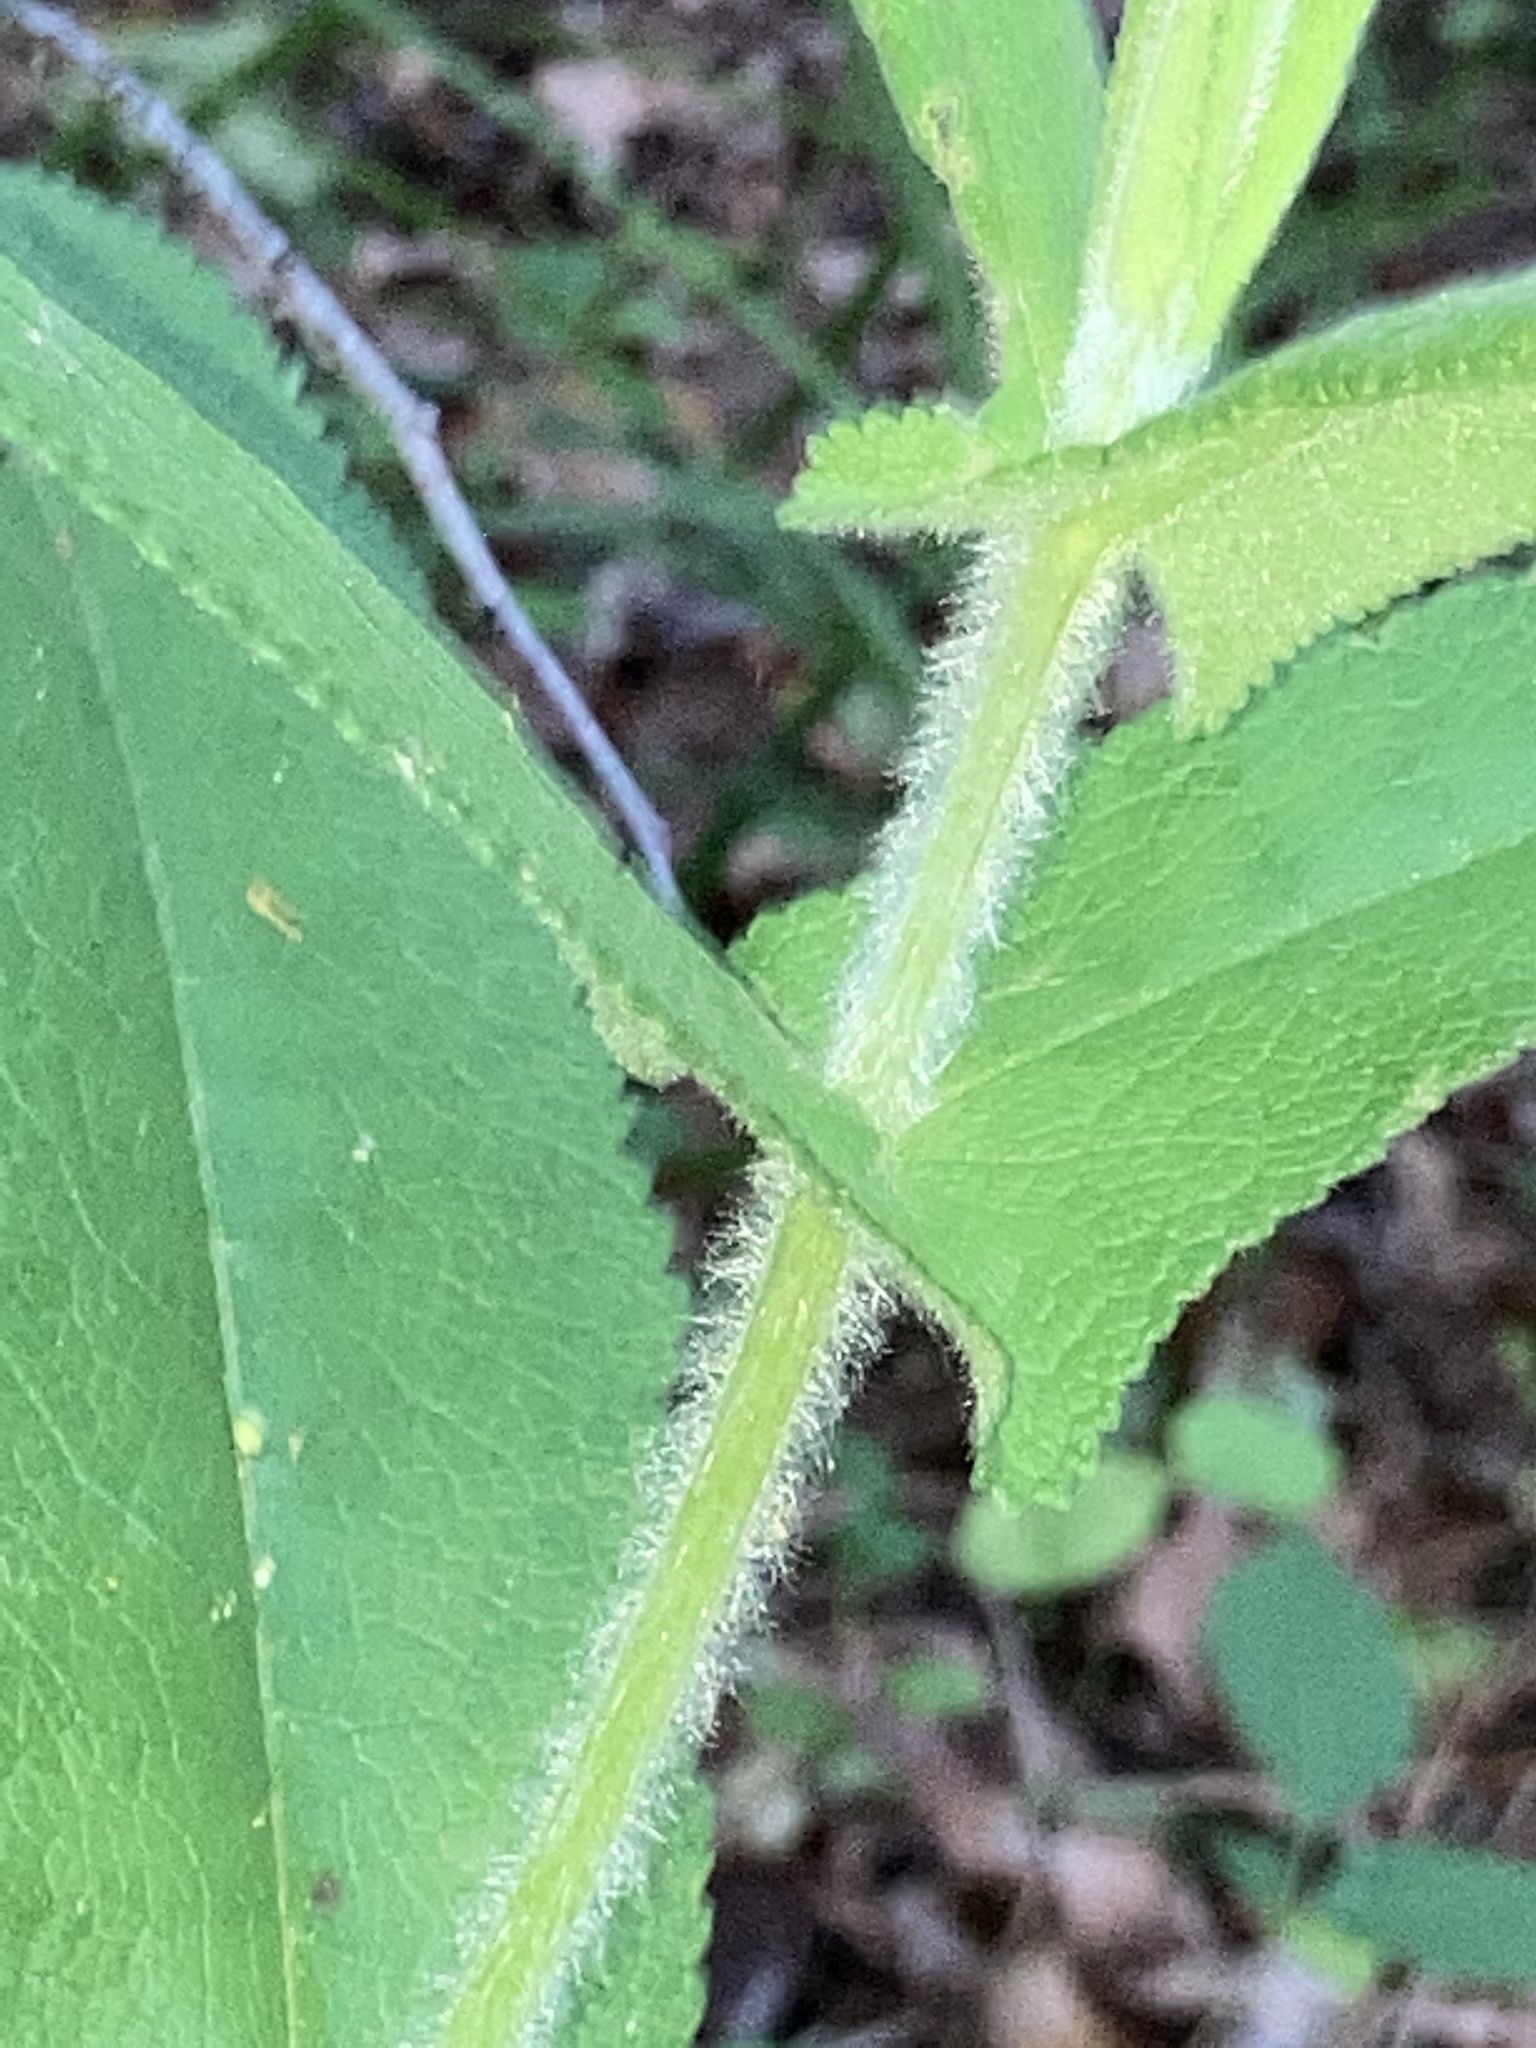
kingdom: Plantae
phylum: Tracheophyta
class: Magnoliopsida
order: Asterales
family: Asteraceae
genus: Eupatorium
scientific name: Eupatorium perfoliatum
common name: Boneset
